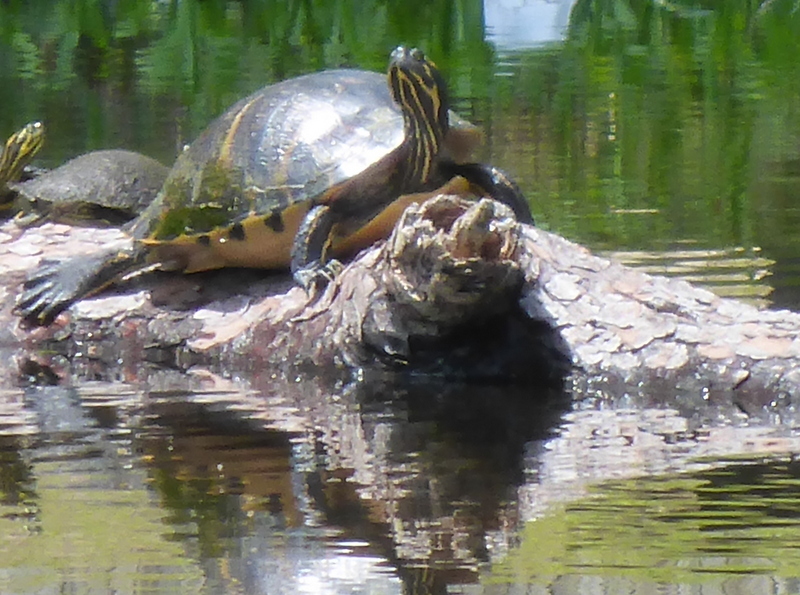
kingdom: Animalia
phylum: Chordata
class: Testudines
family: Emydidae
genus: Pseudemys
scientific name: Pseudemys concinna
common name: Eastern river cooter
